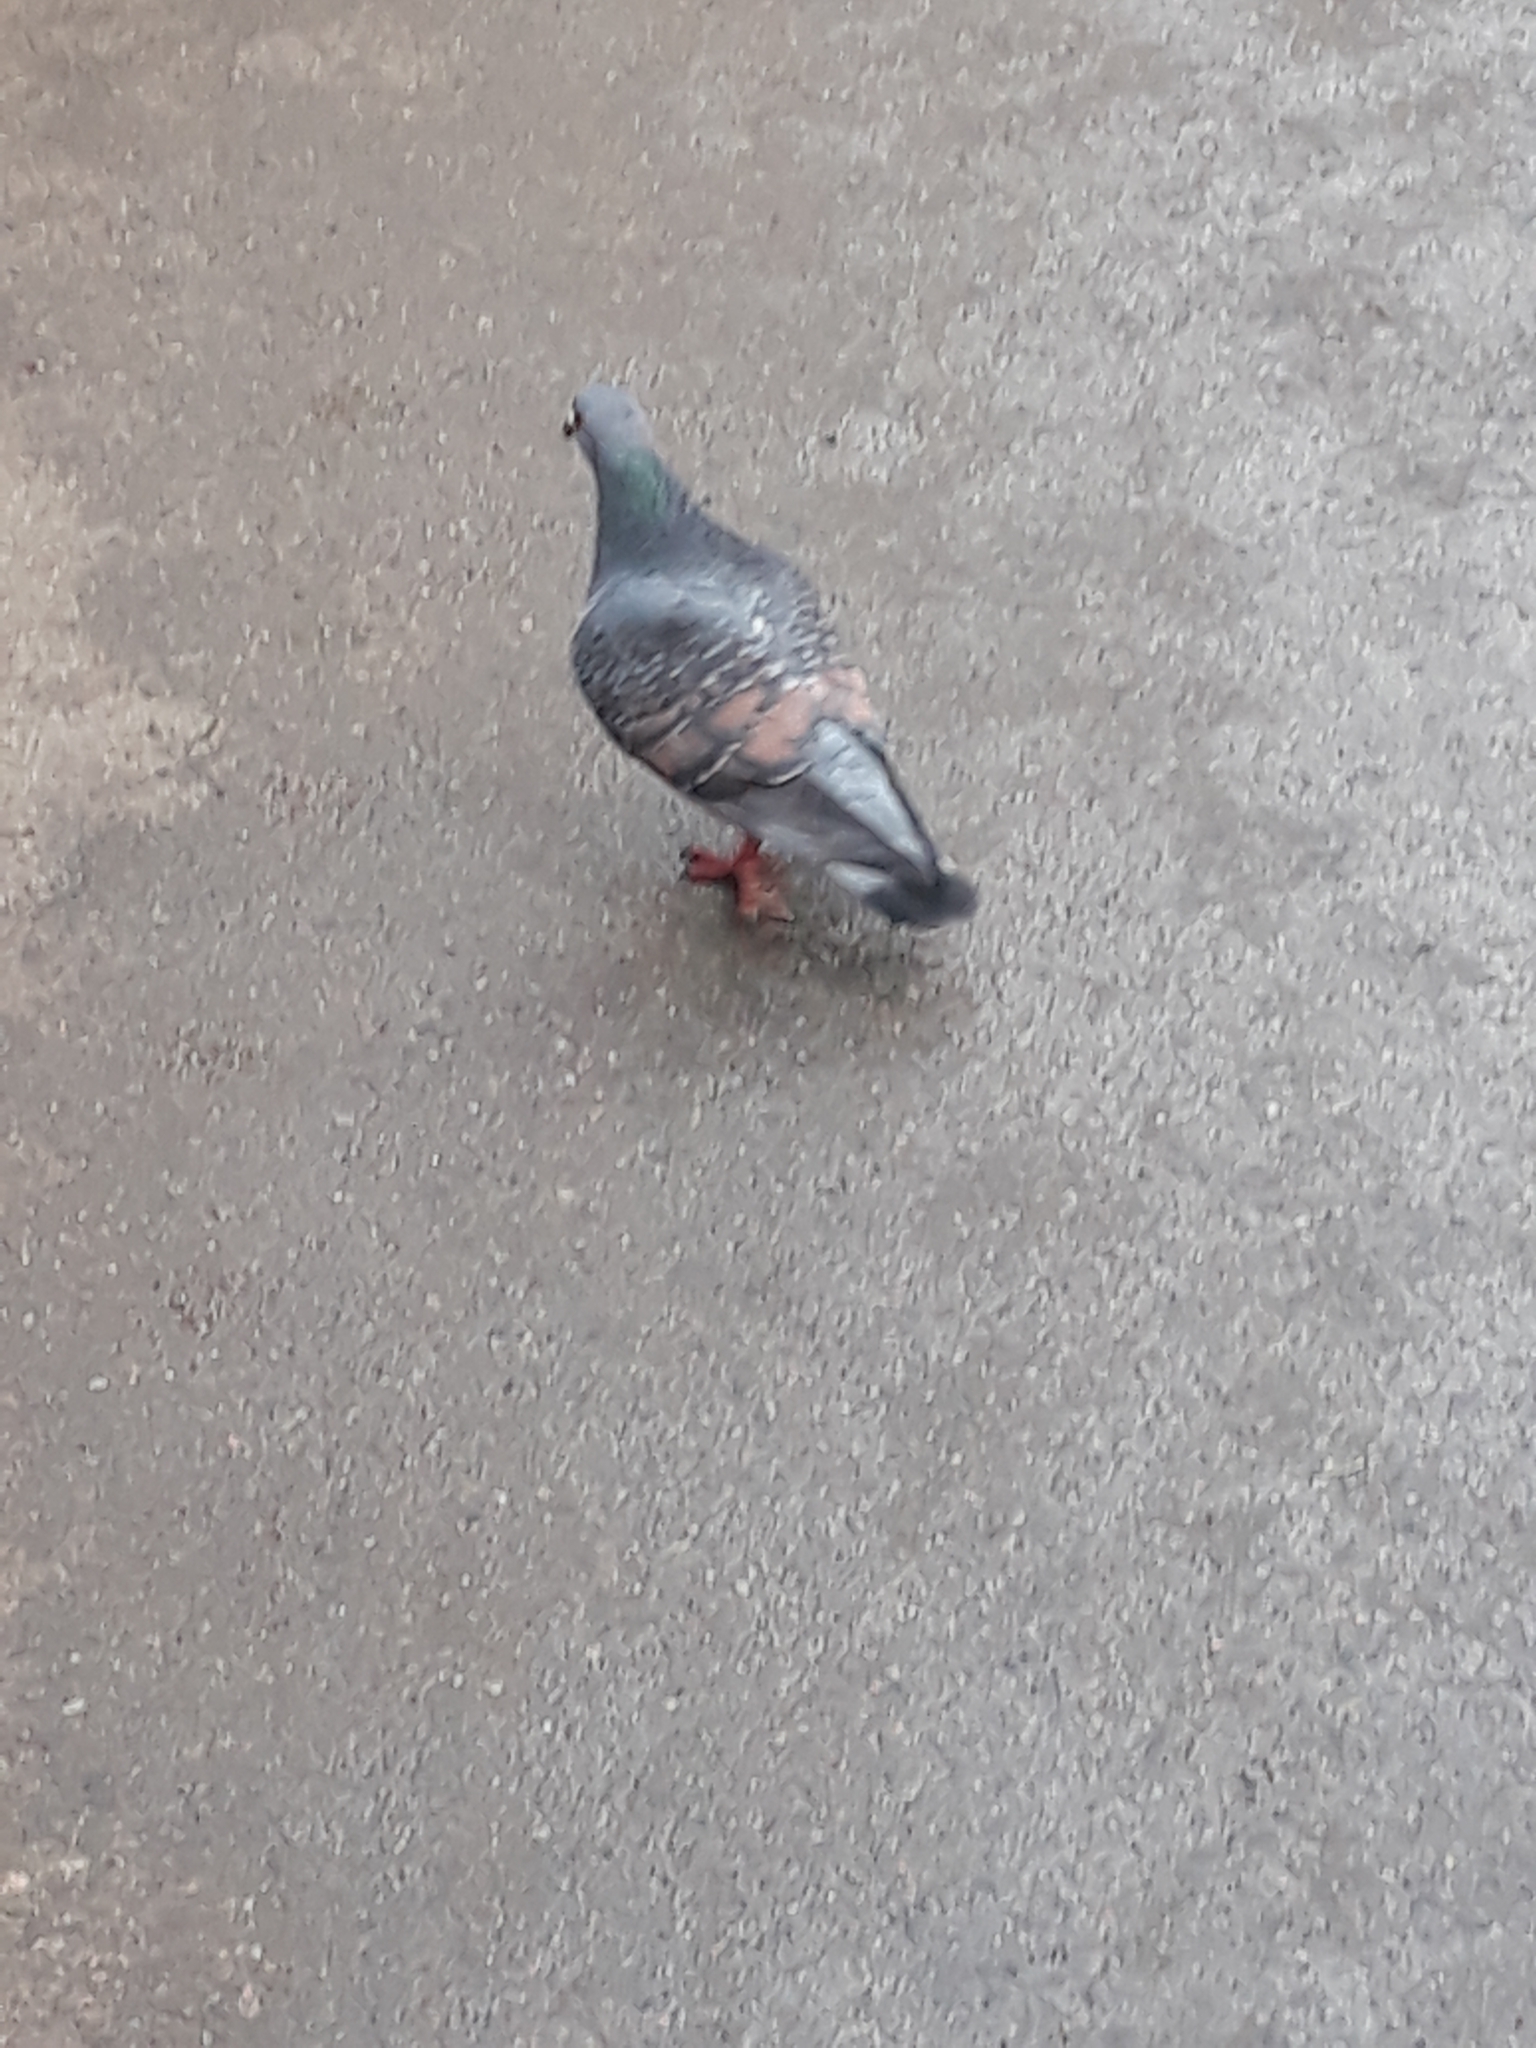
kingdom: Animalia
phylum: Chordata
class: Aves
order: Columbiformes
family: Columbidae
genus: Columba
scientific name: Columba livia
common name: Rock pigeon
